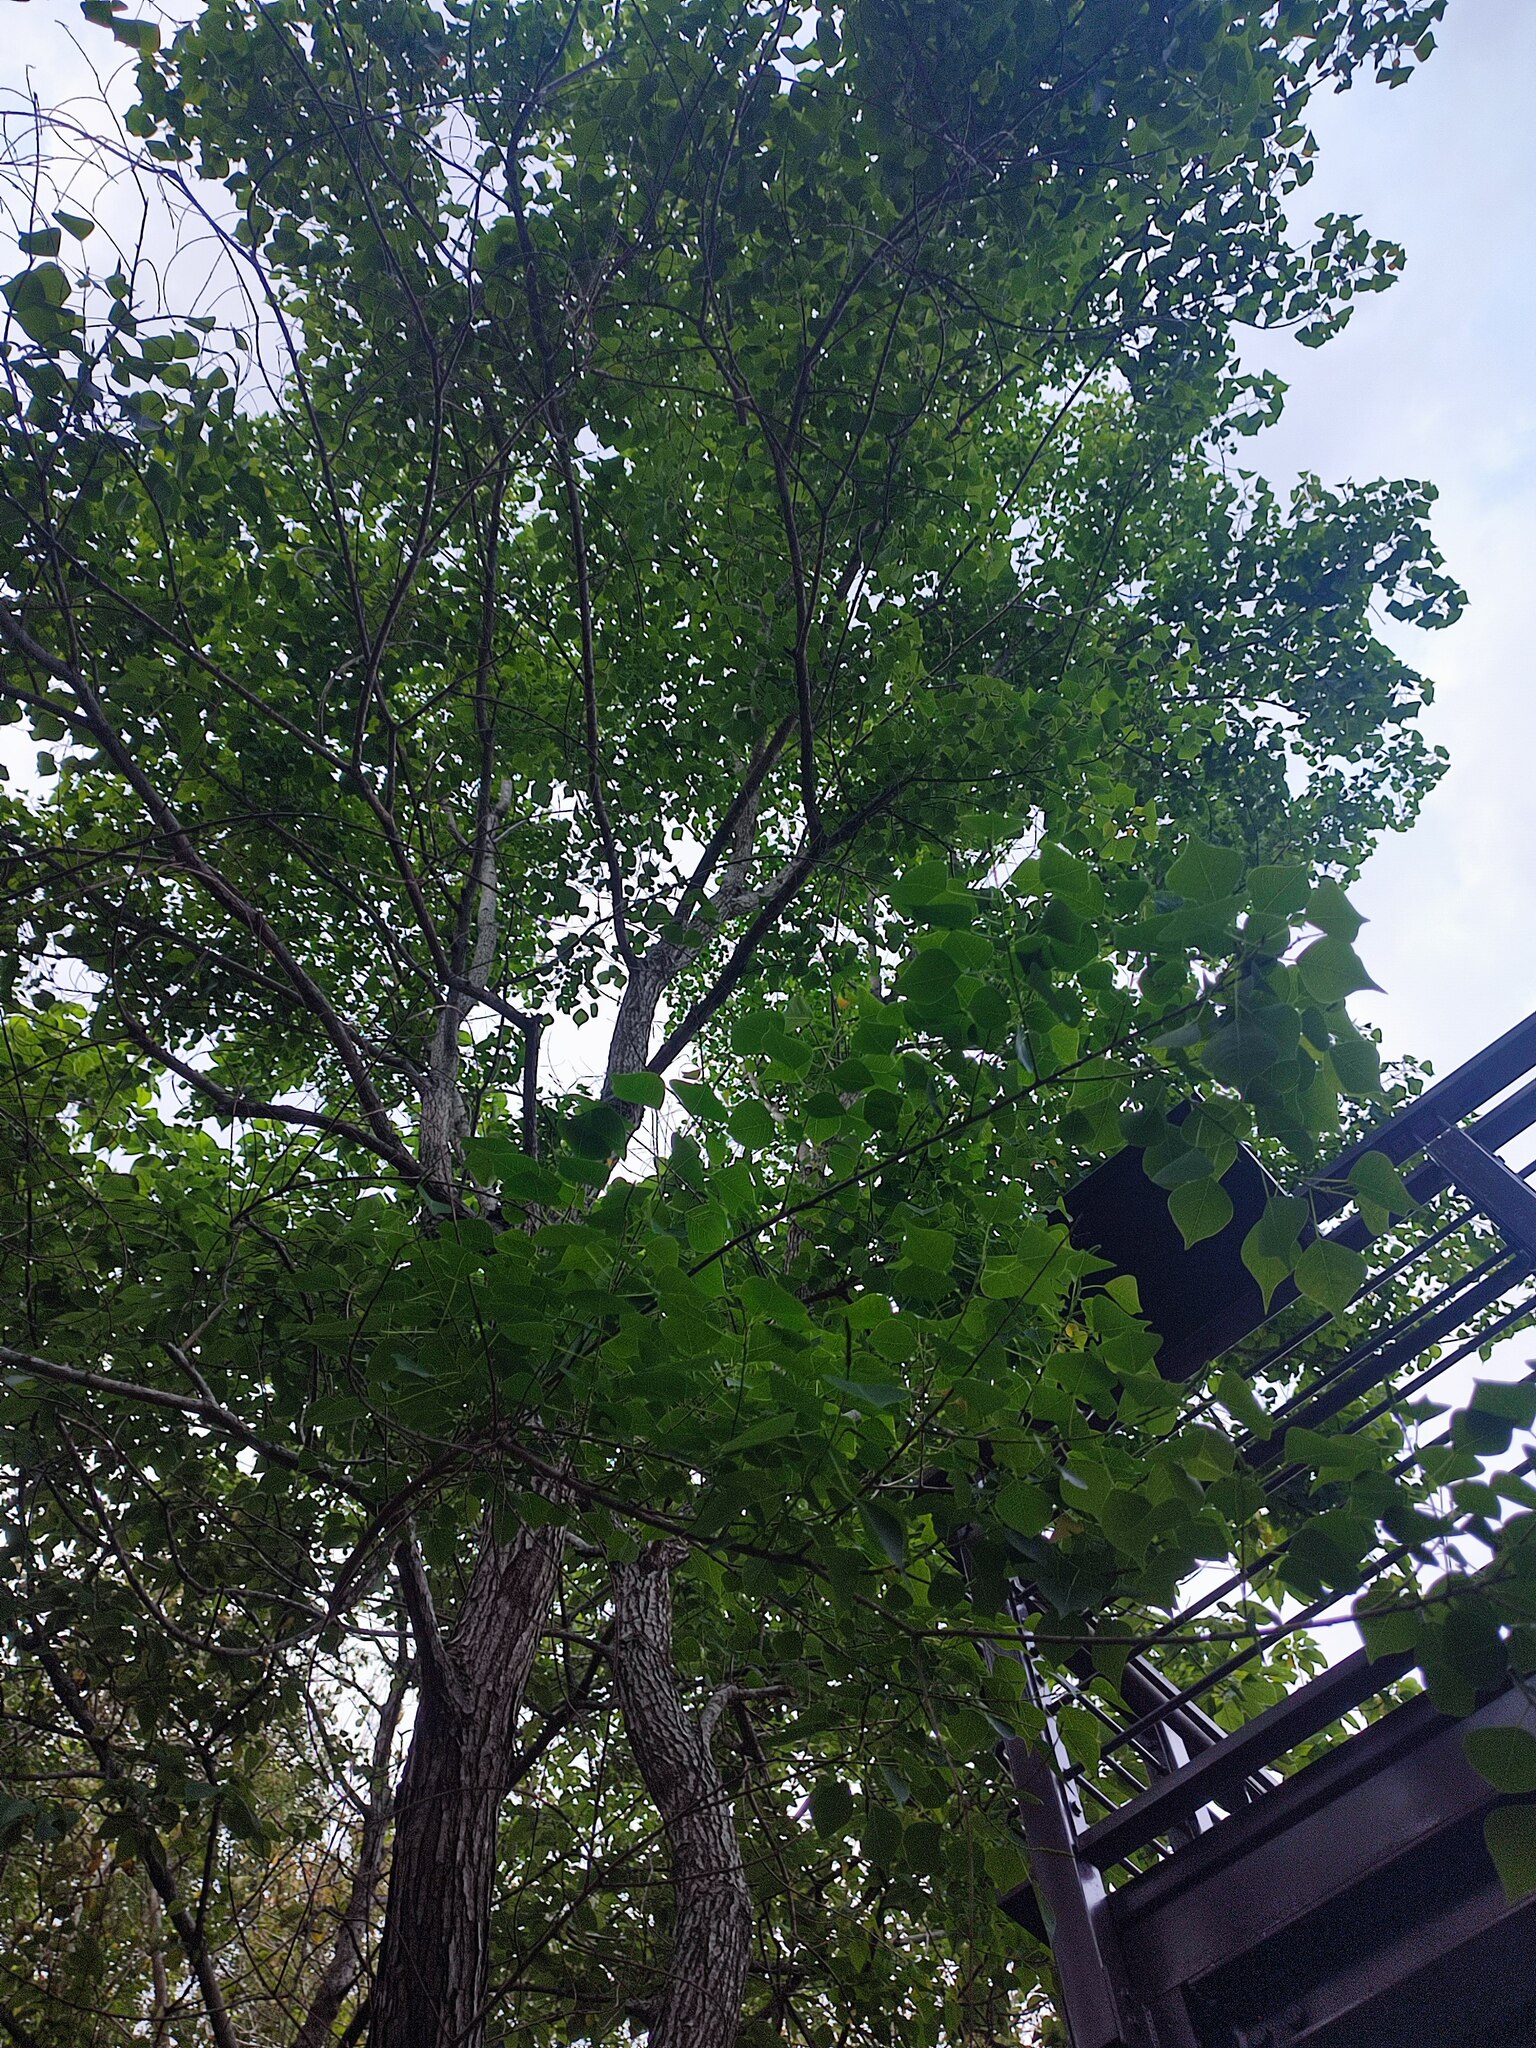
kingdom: Plantae
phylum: Tracheophyta
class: Magnoliopsida
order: Malpighiales
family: Euphorbiaceae
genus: Triadica
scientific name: Triadica sebifera
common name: Chinese tallow
